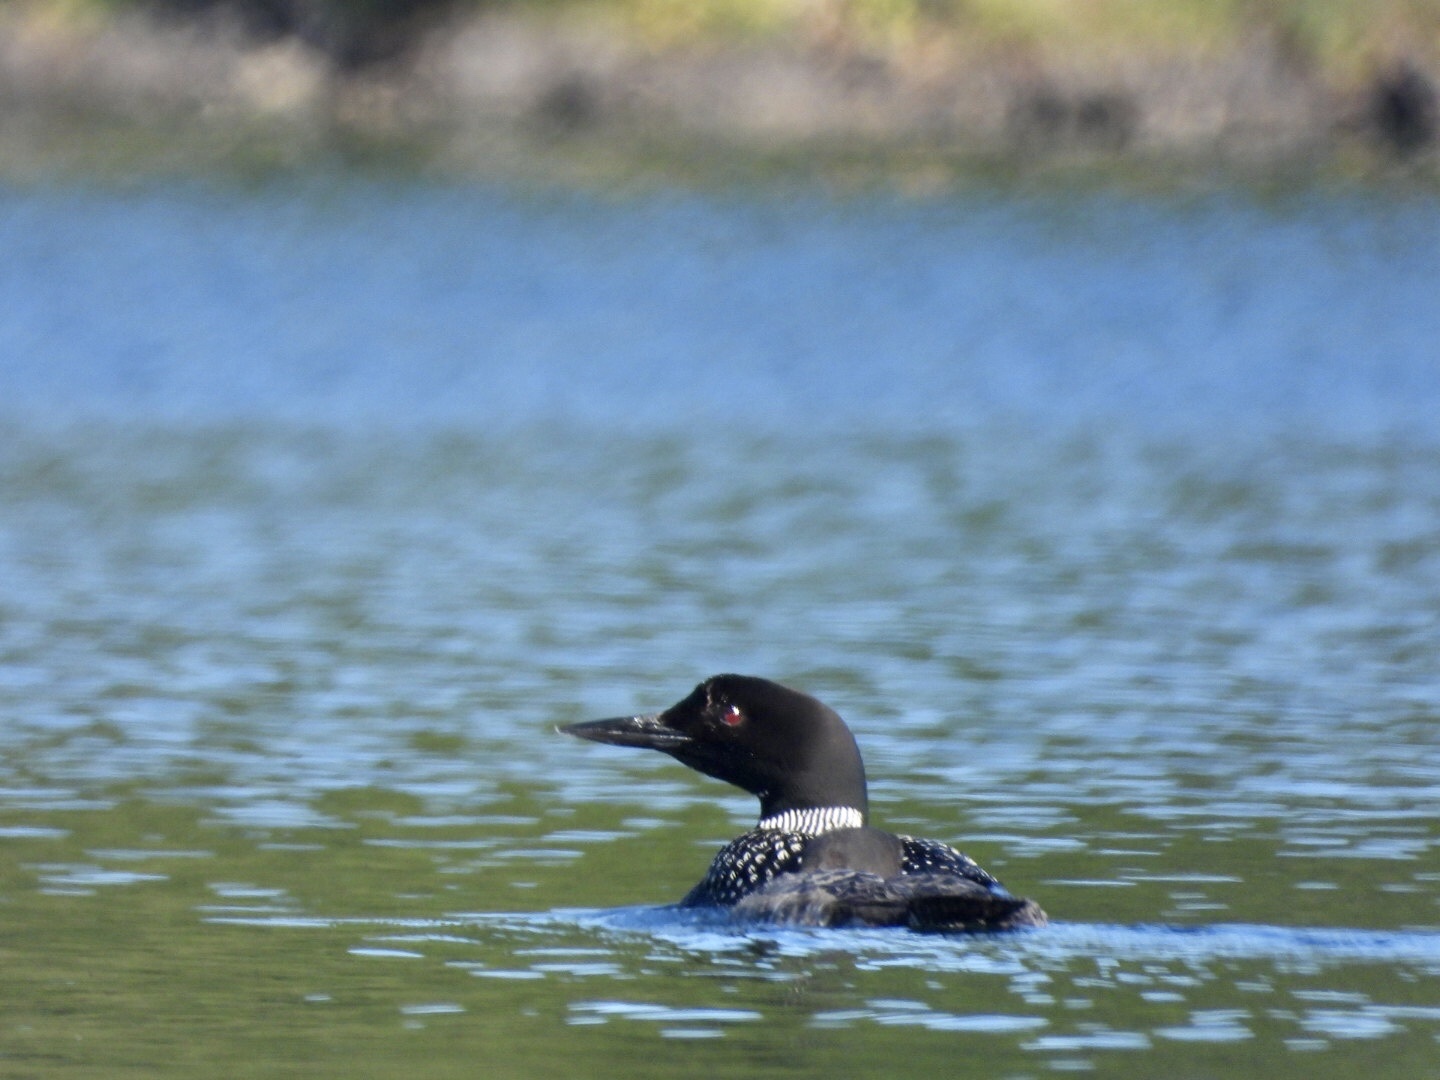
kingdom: Animalia
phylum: Chordata
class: Aves
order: Gaviiformes
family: Gaviidae
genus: Gavia
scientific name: Gavia immer
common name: Common loon
